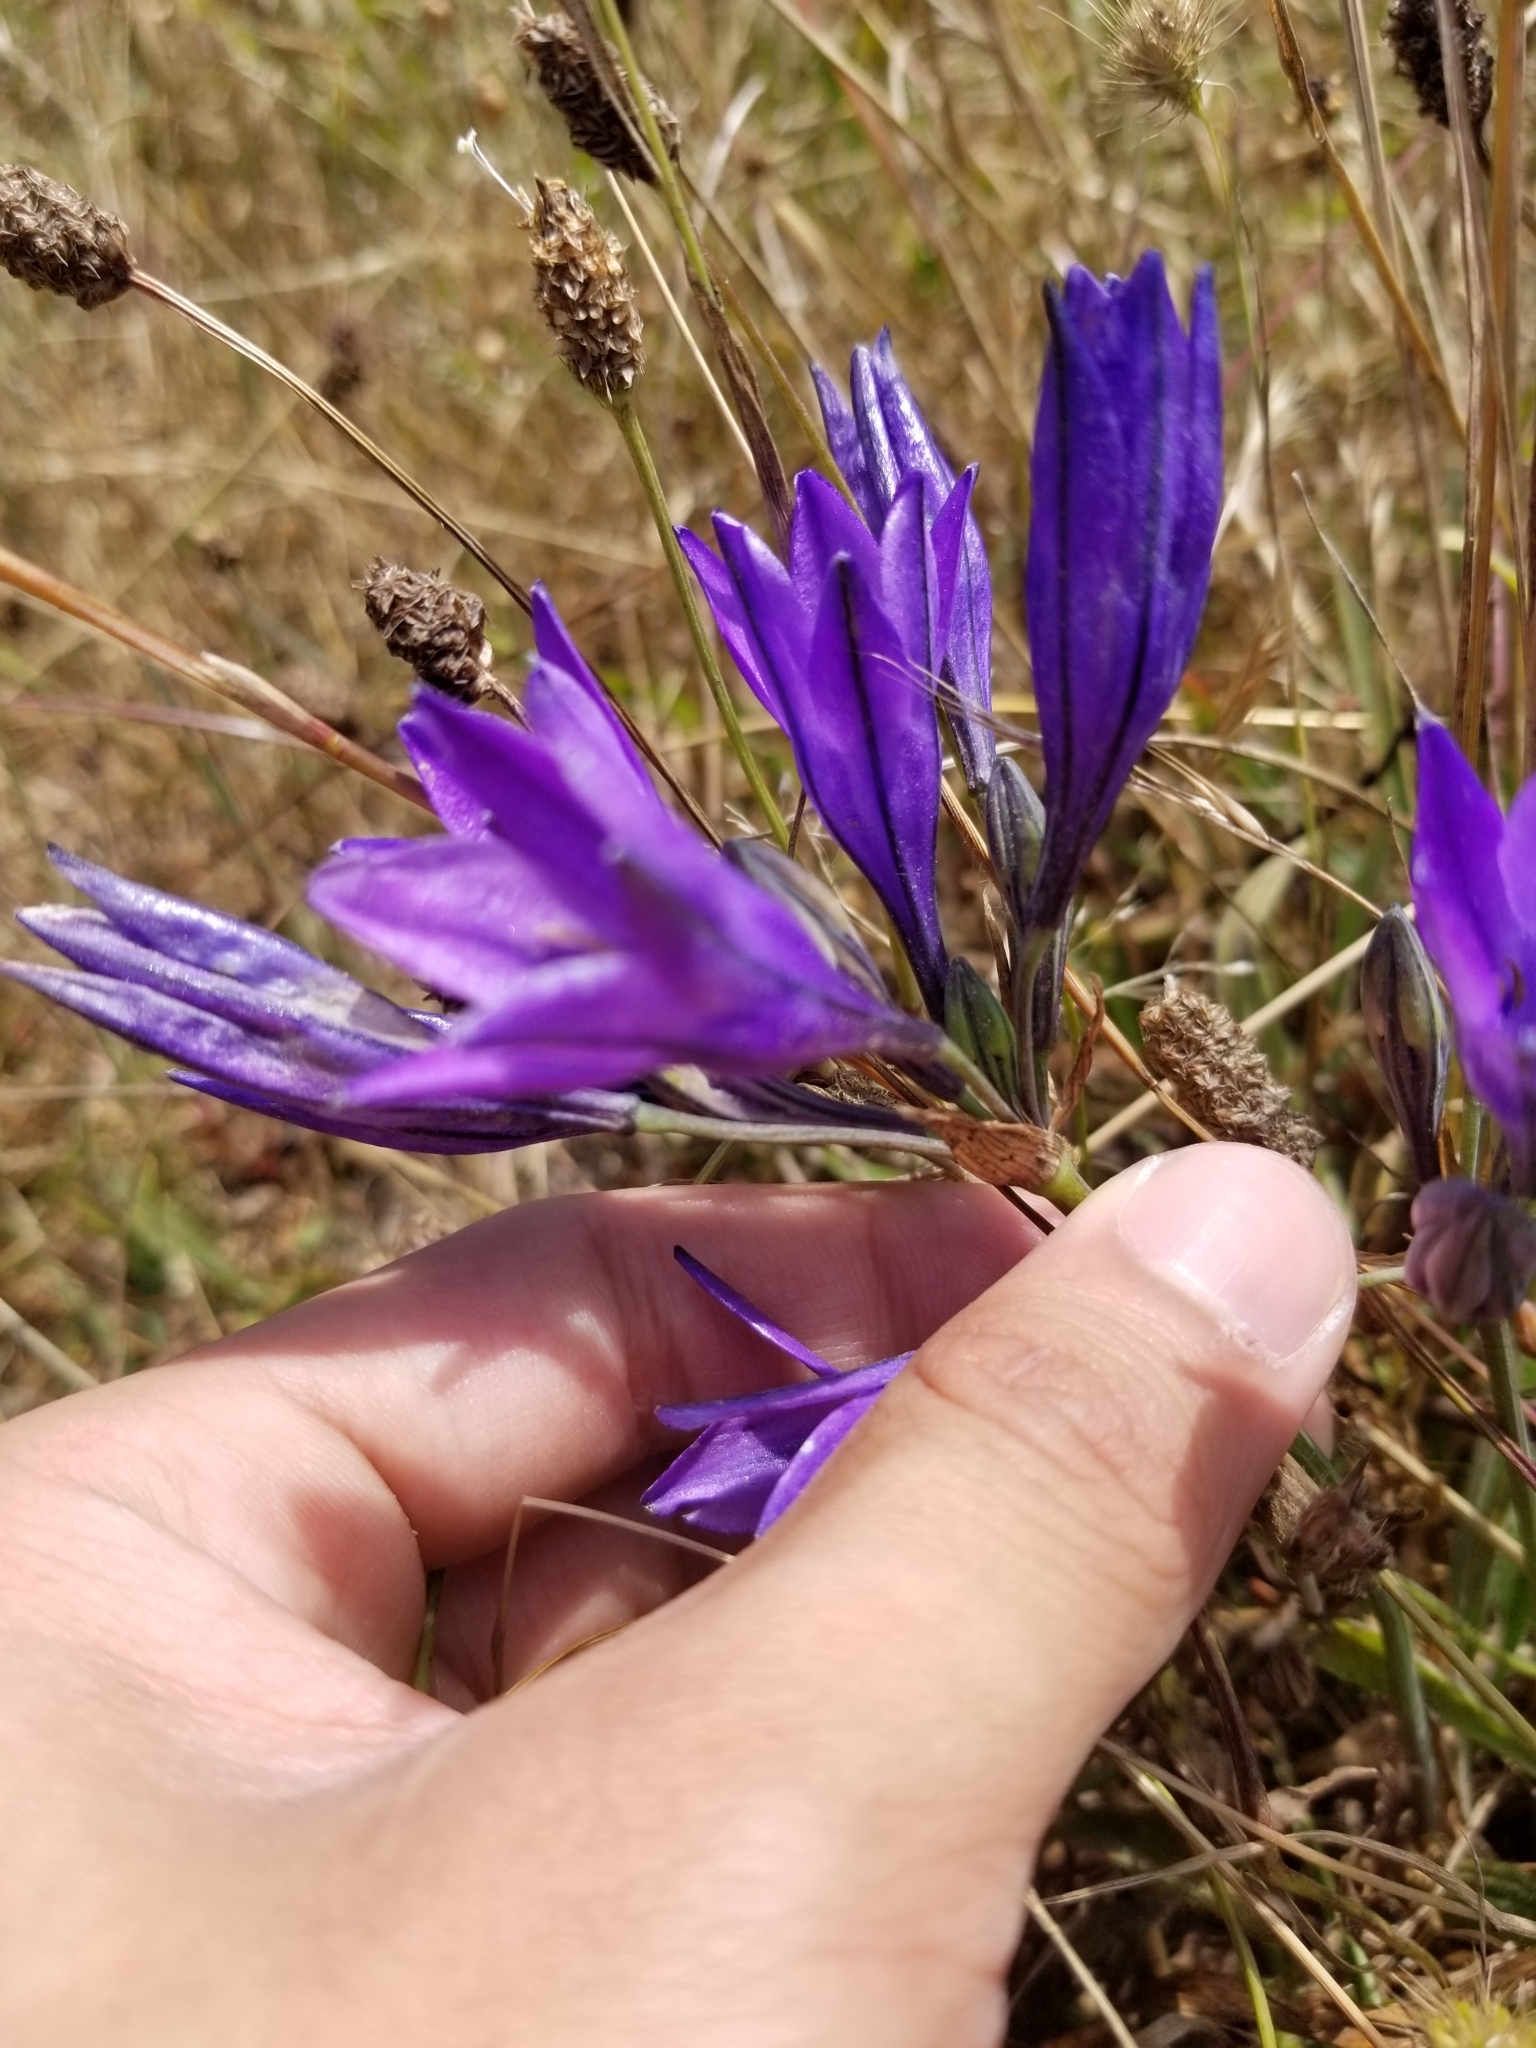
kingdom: Plantae
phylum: Tracheophyta
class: Liliopsida
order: Asparagales
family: Asparagaceae
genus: Triteleia
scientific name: Triteleia laxa
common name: Triplet-lily
